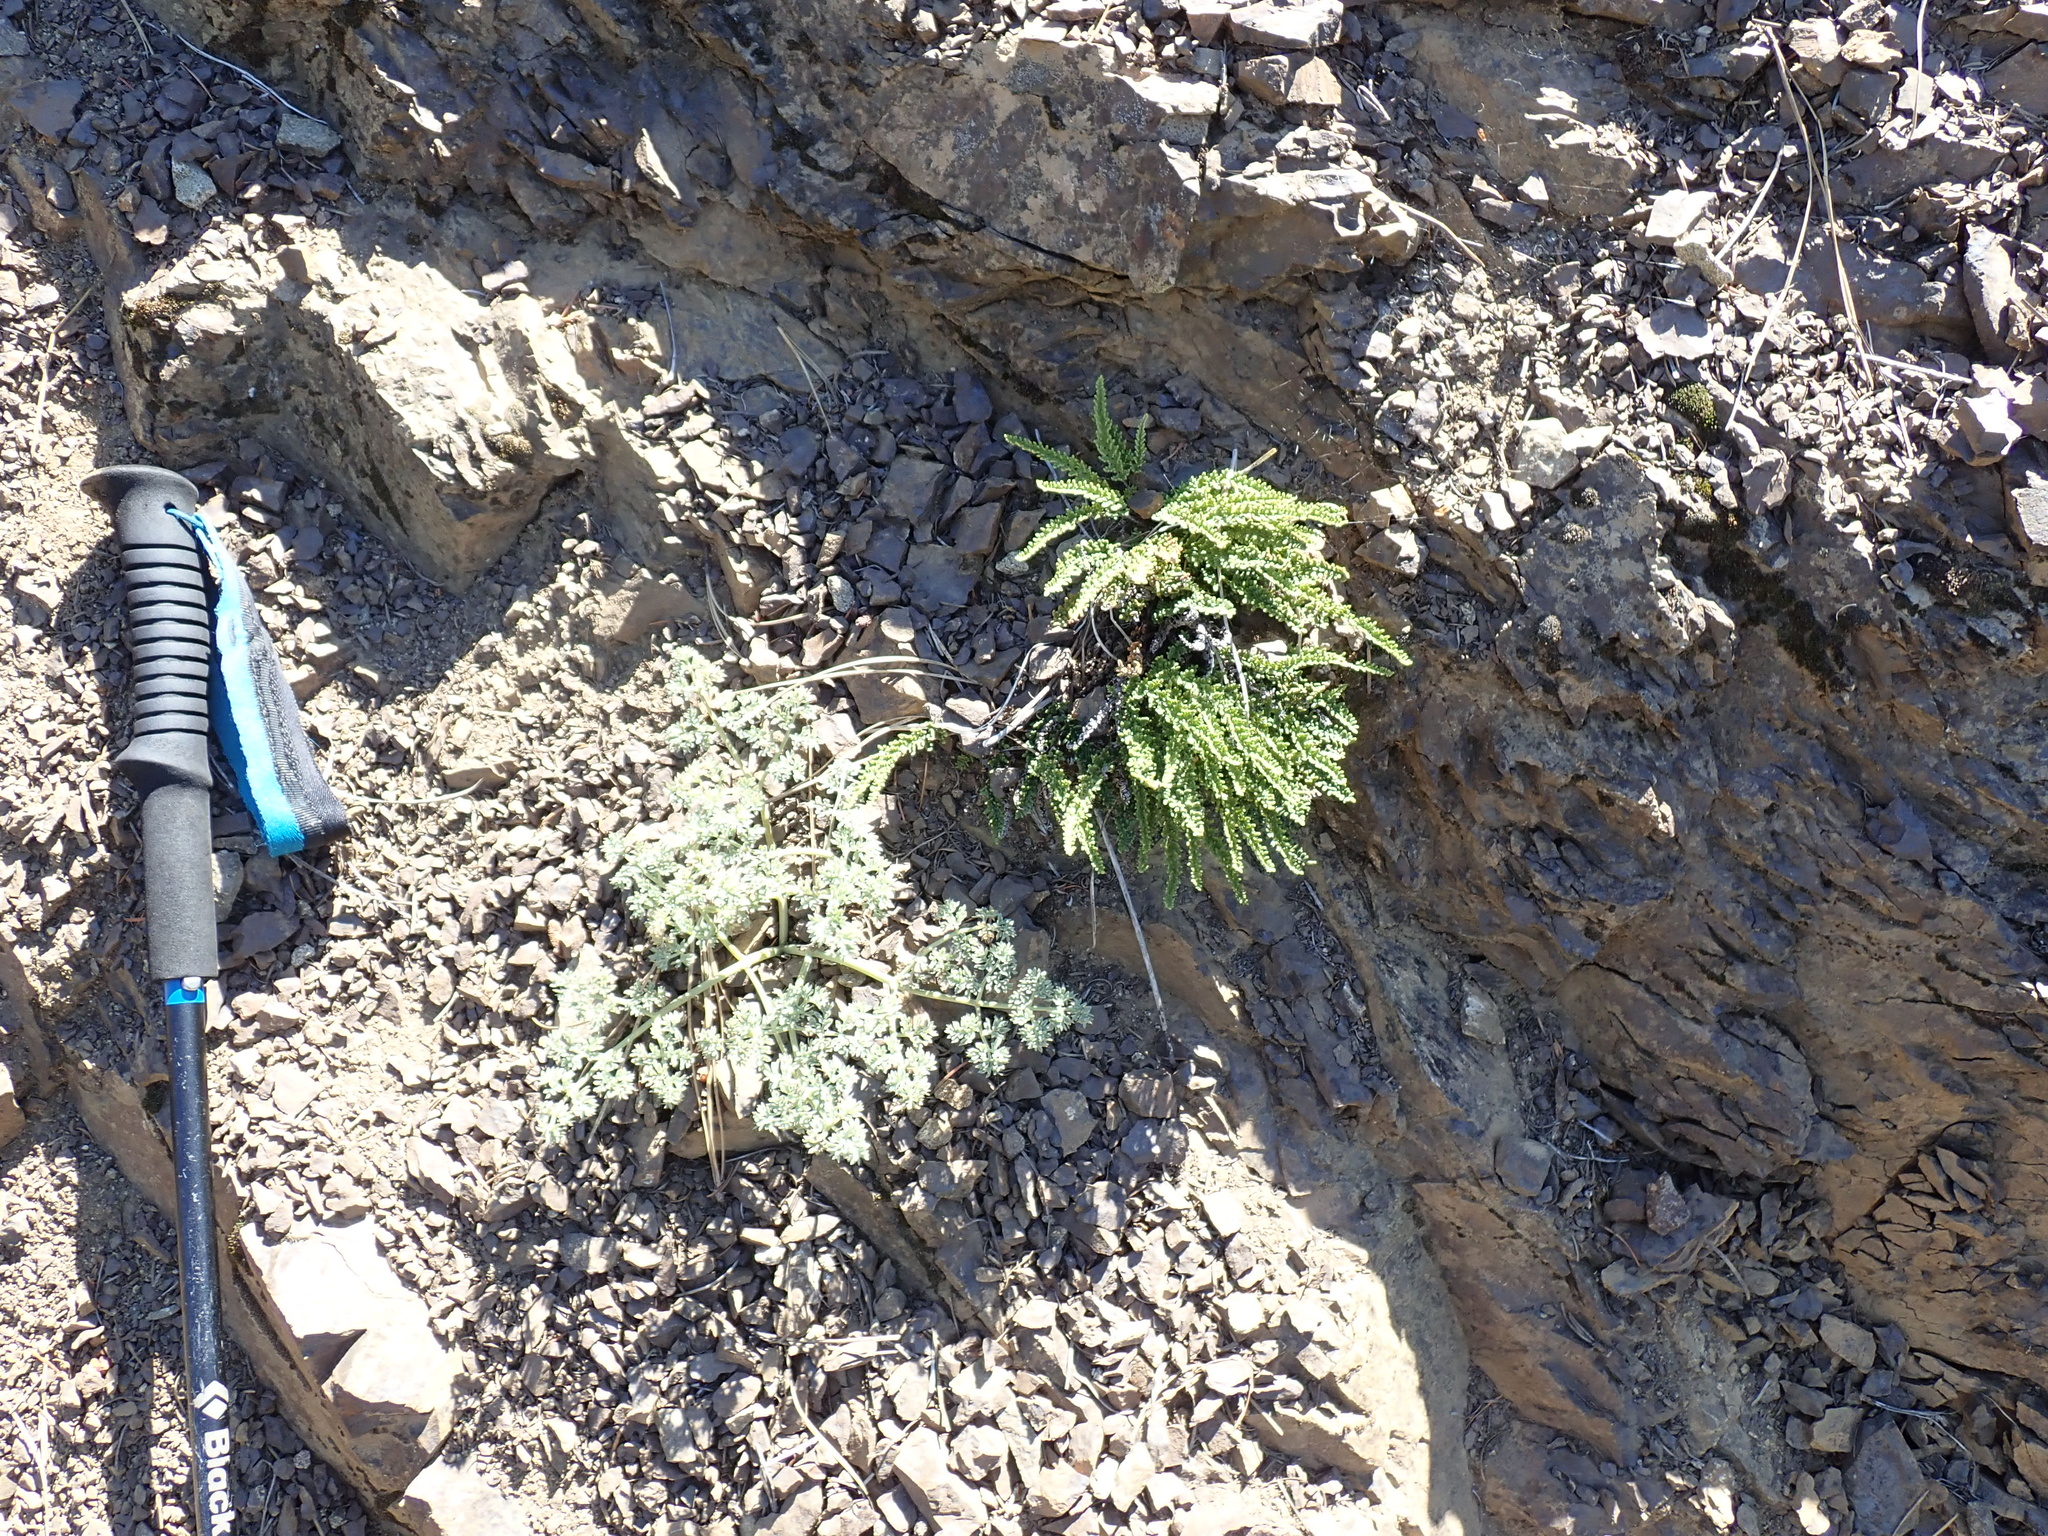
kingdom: Plantae
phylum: Tracheophyta
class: Polypodiopsida
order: Polypodiales
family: Pteridaceae
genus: Myriopteris
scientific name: Myriopteris gracillima
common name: Lace fern
